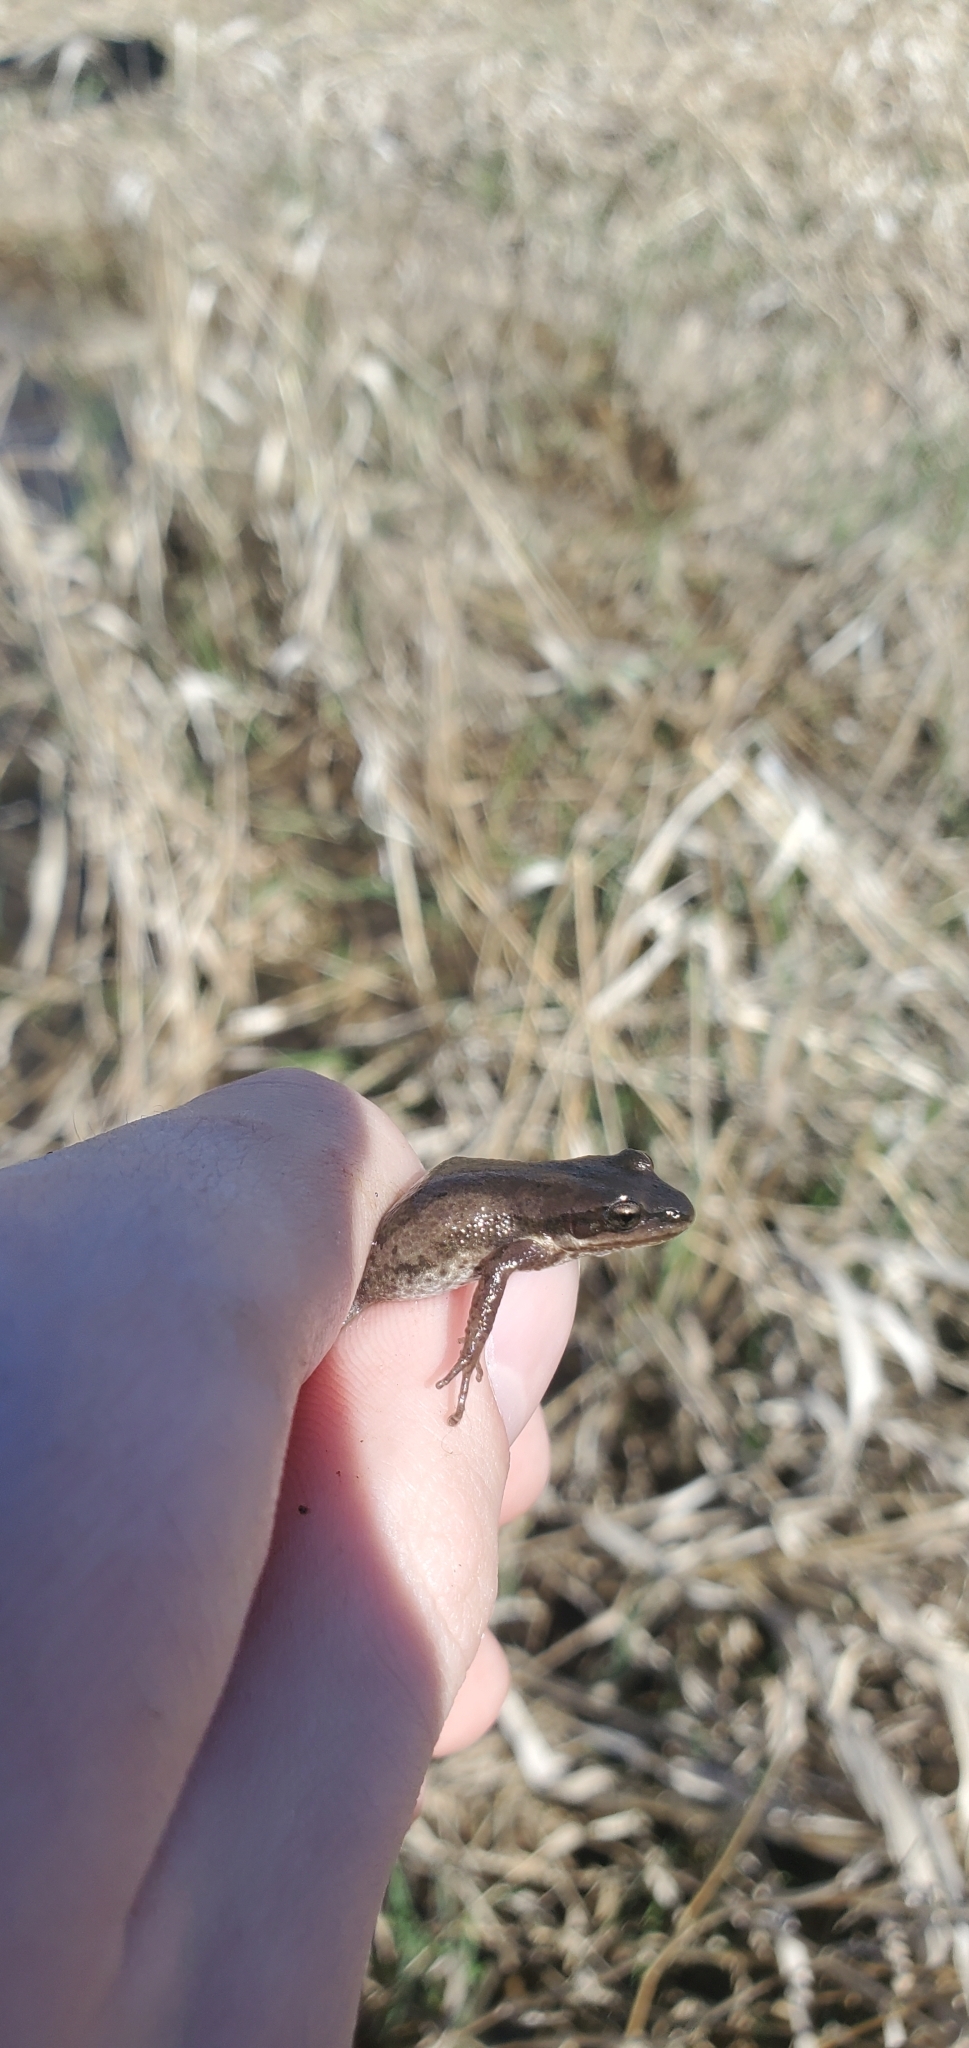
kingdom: Animalia
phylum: Chordata
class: Amphibia
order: Anura
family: Hylidae
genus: Pseudacris
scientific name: Pseudacris maculata
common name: Boreal chorus frog
